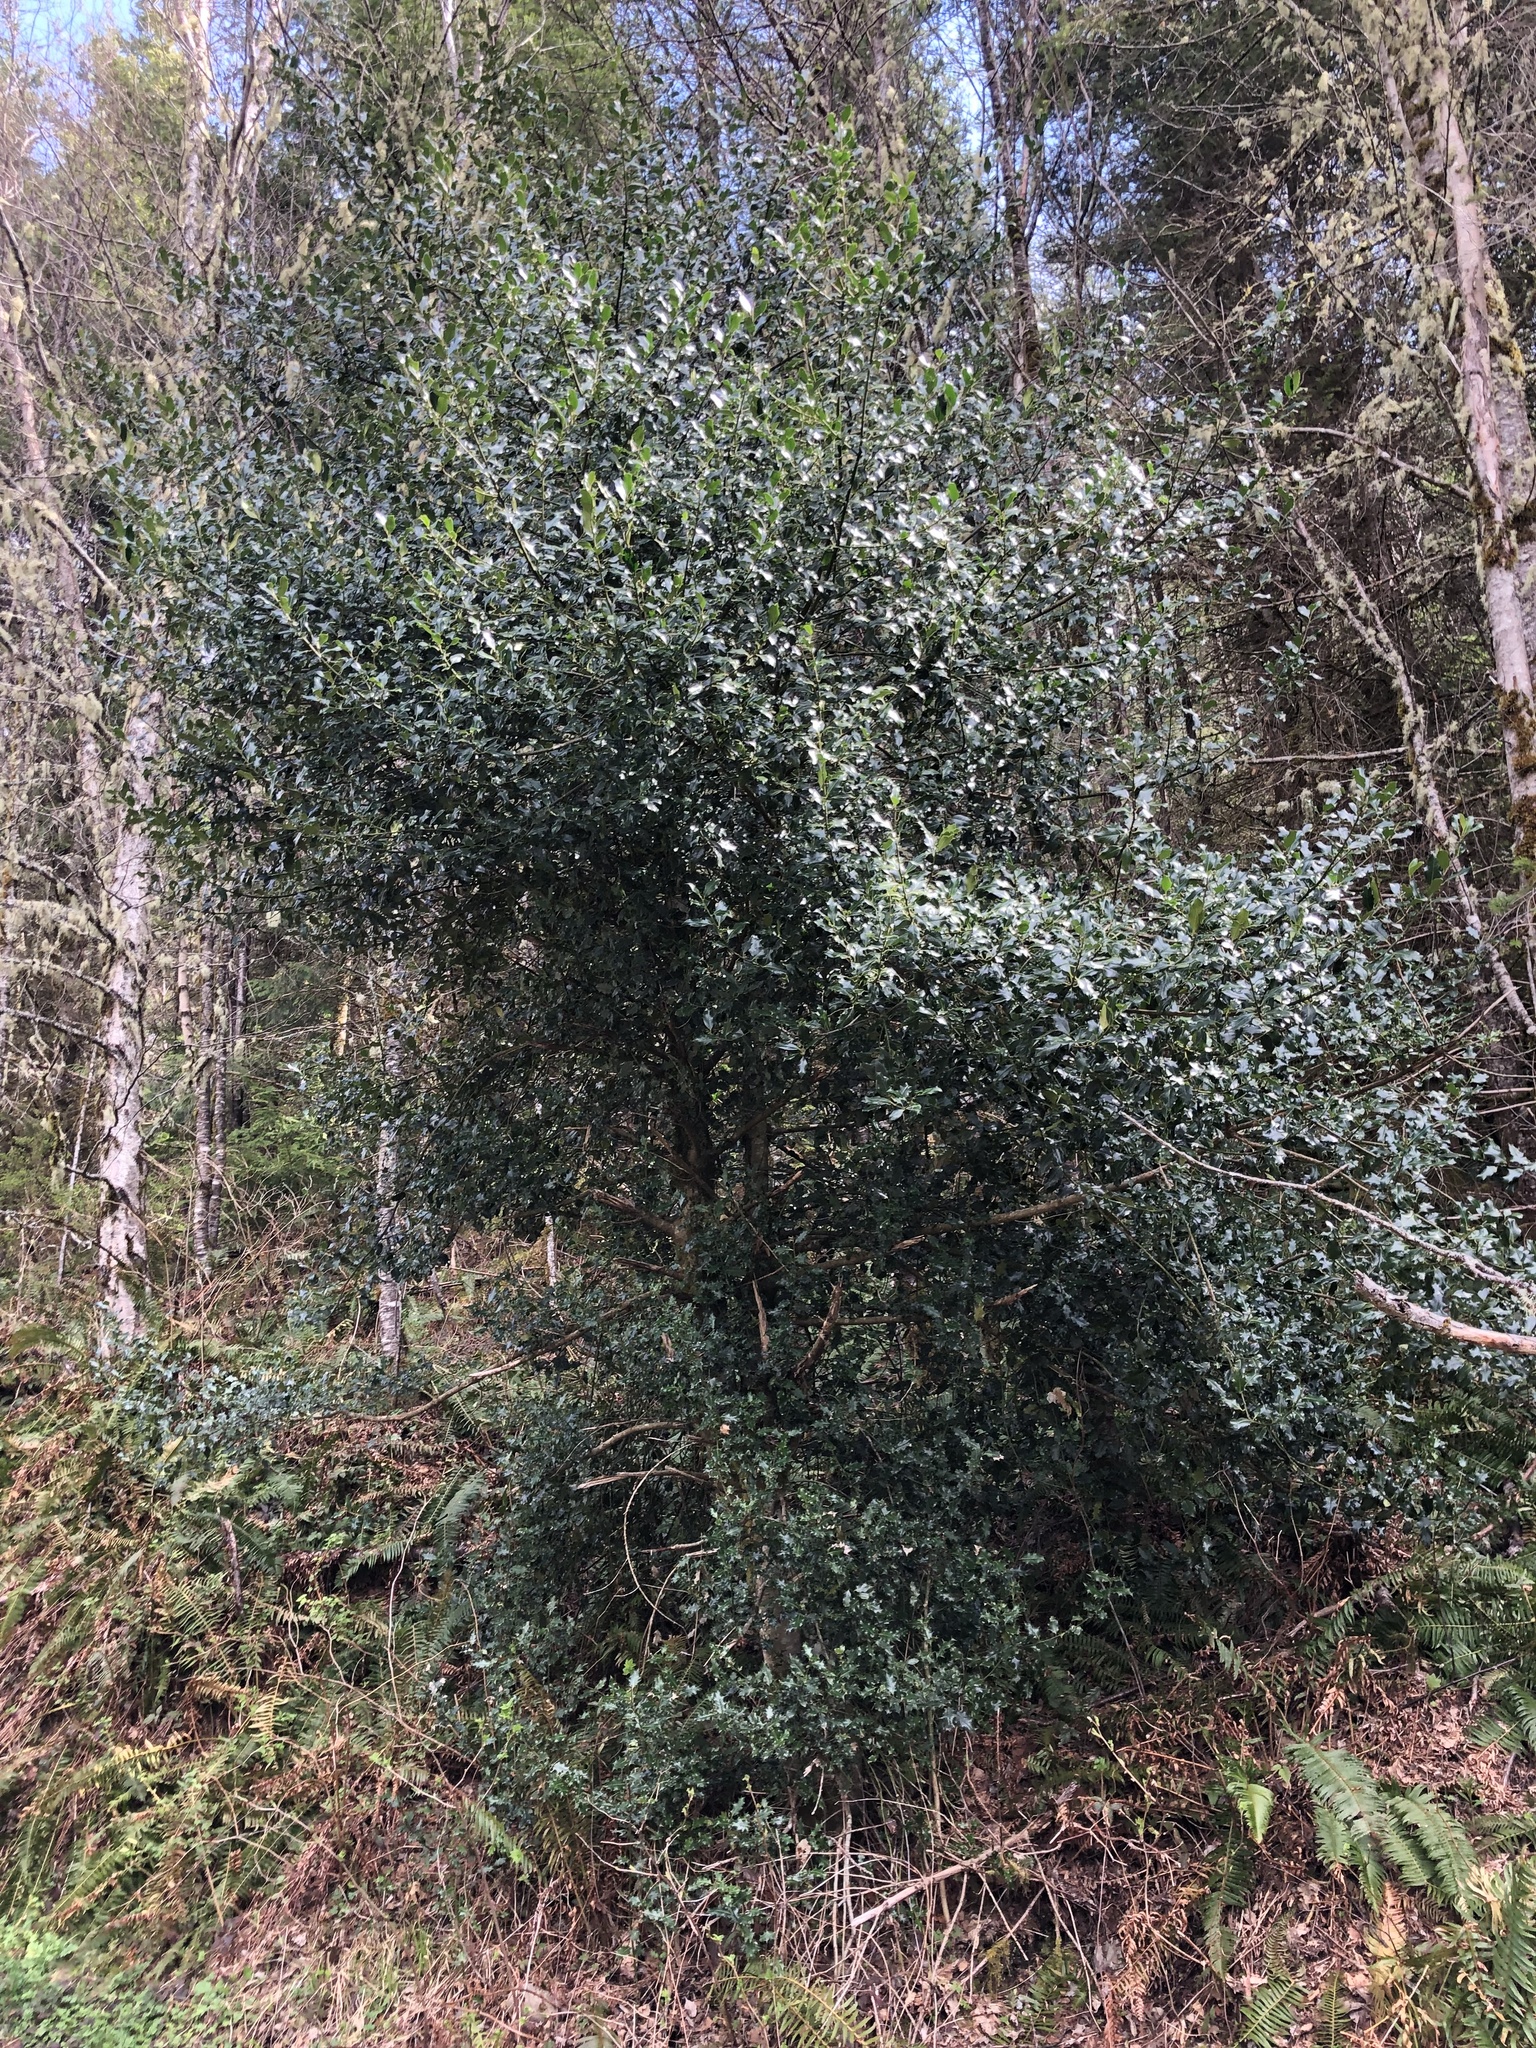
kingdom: Plantae
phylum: Tracheophyta
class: Magnoliopsida
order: Aquifoliales
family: Aquifoliaceae
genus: Ilex
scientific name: Ilex aquifolium
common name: English holly
